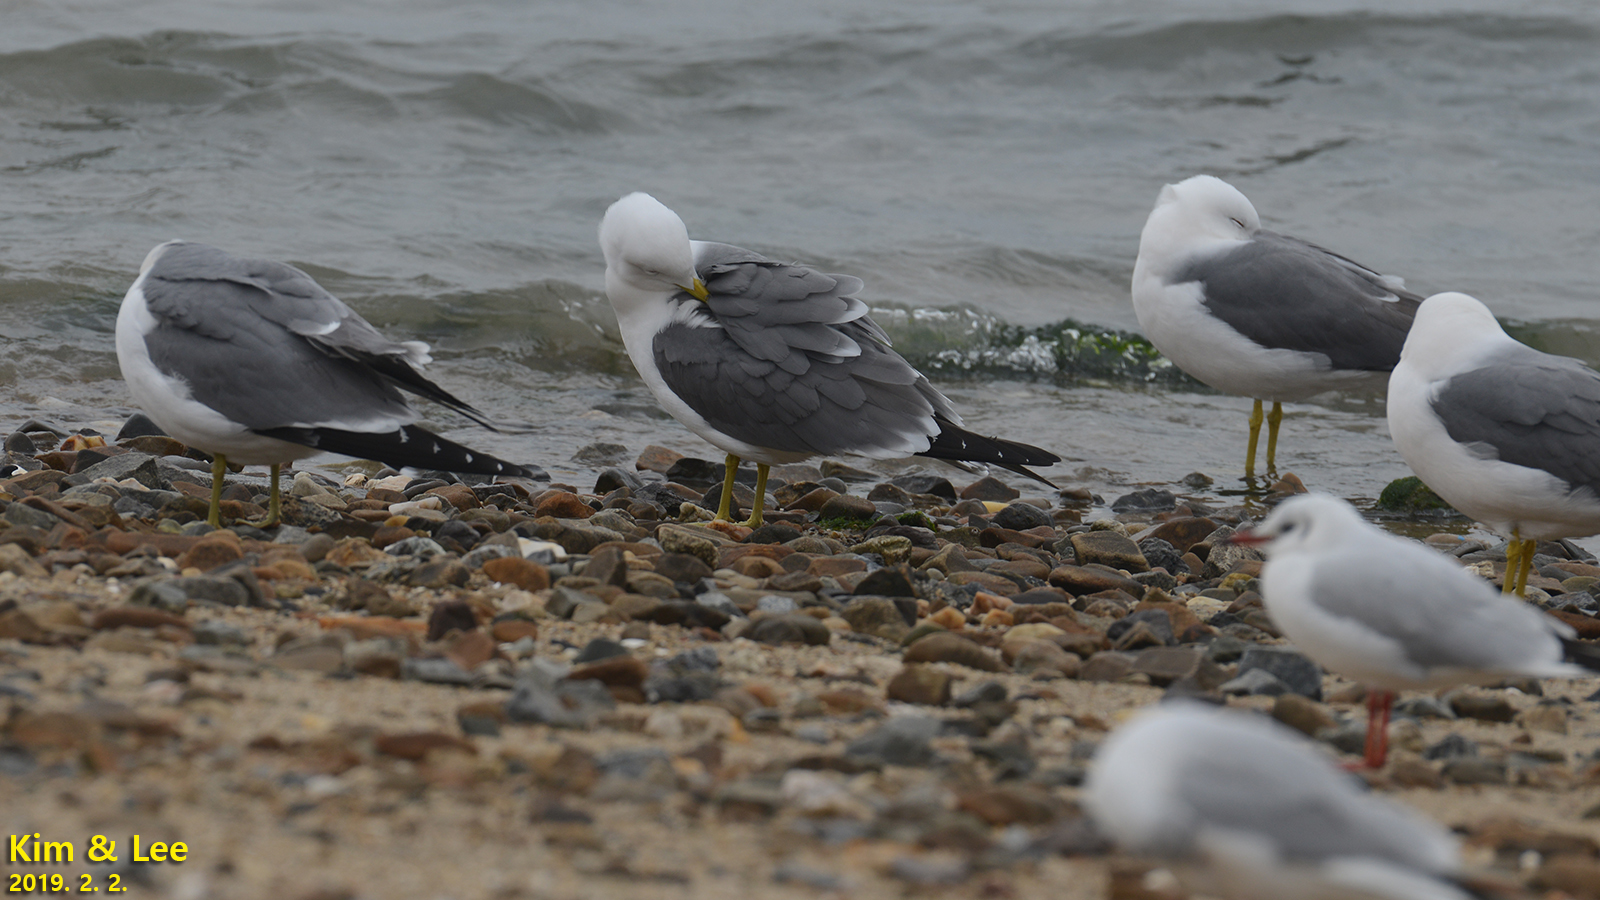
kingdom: Animalia
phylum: Chordata
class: Aves
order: Charadriiformes
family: Laridae
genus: Larus
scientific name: Larus crassirostris
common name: Black-tailed gull
